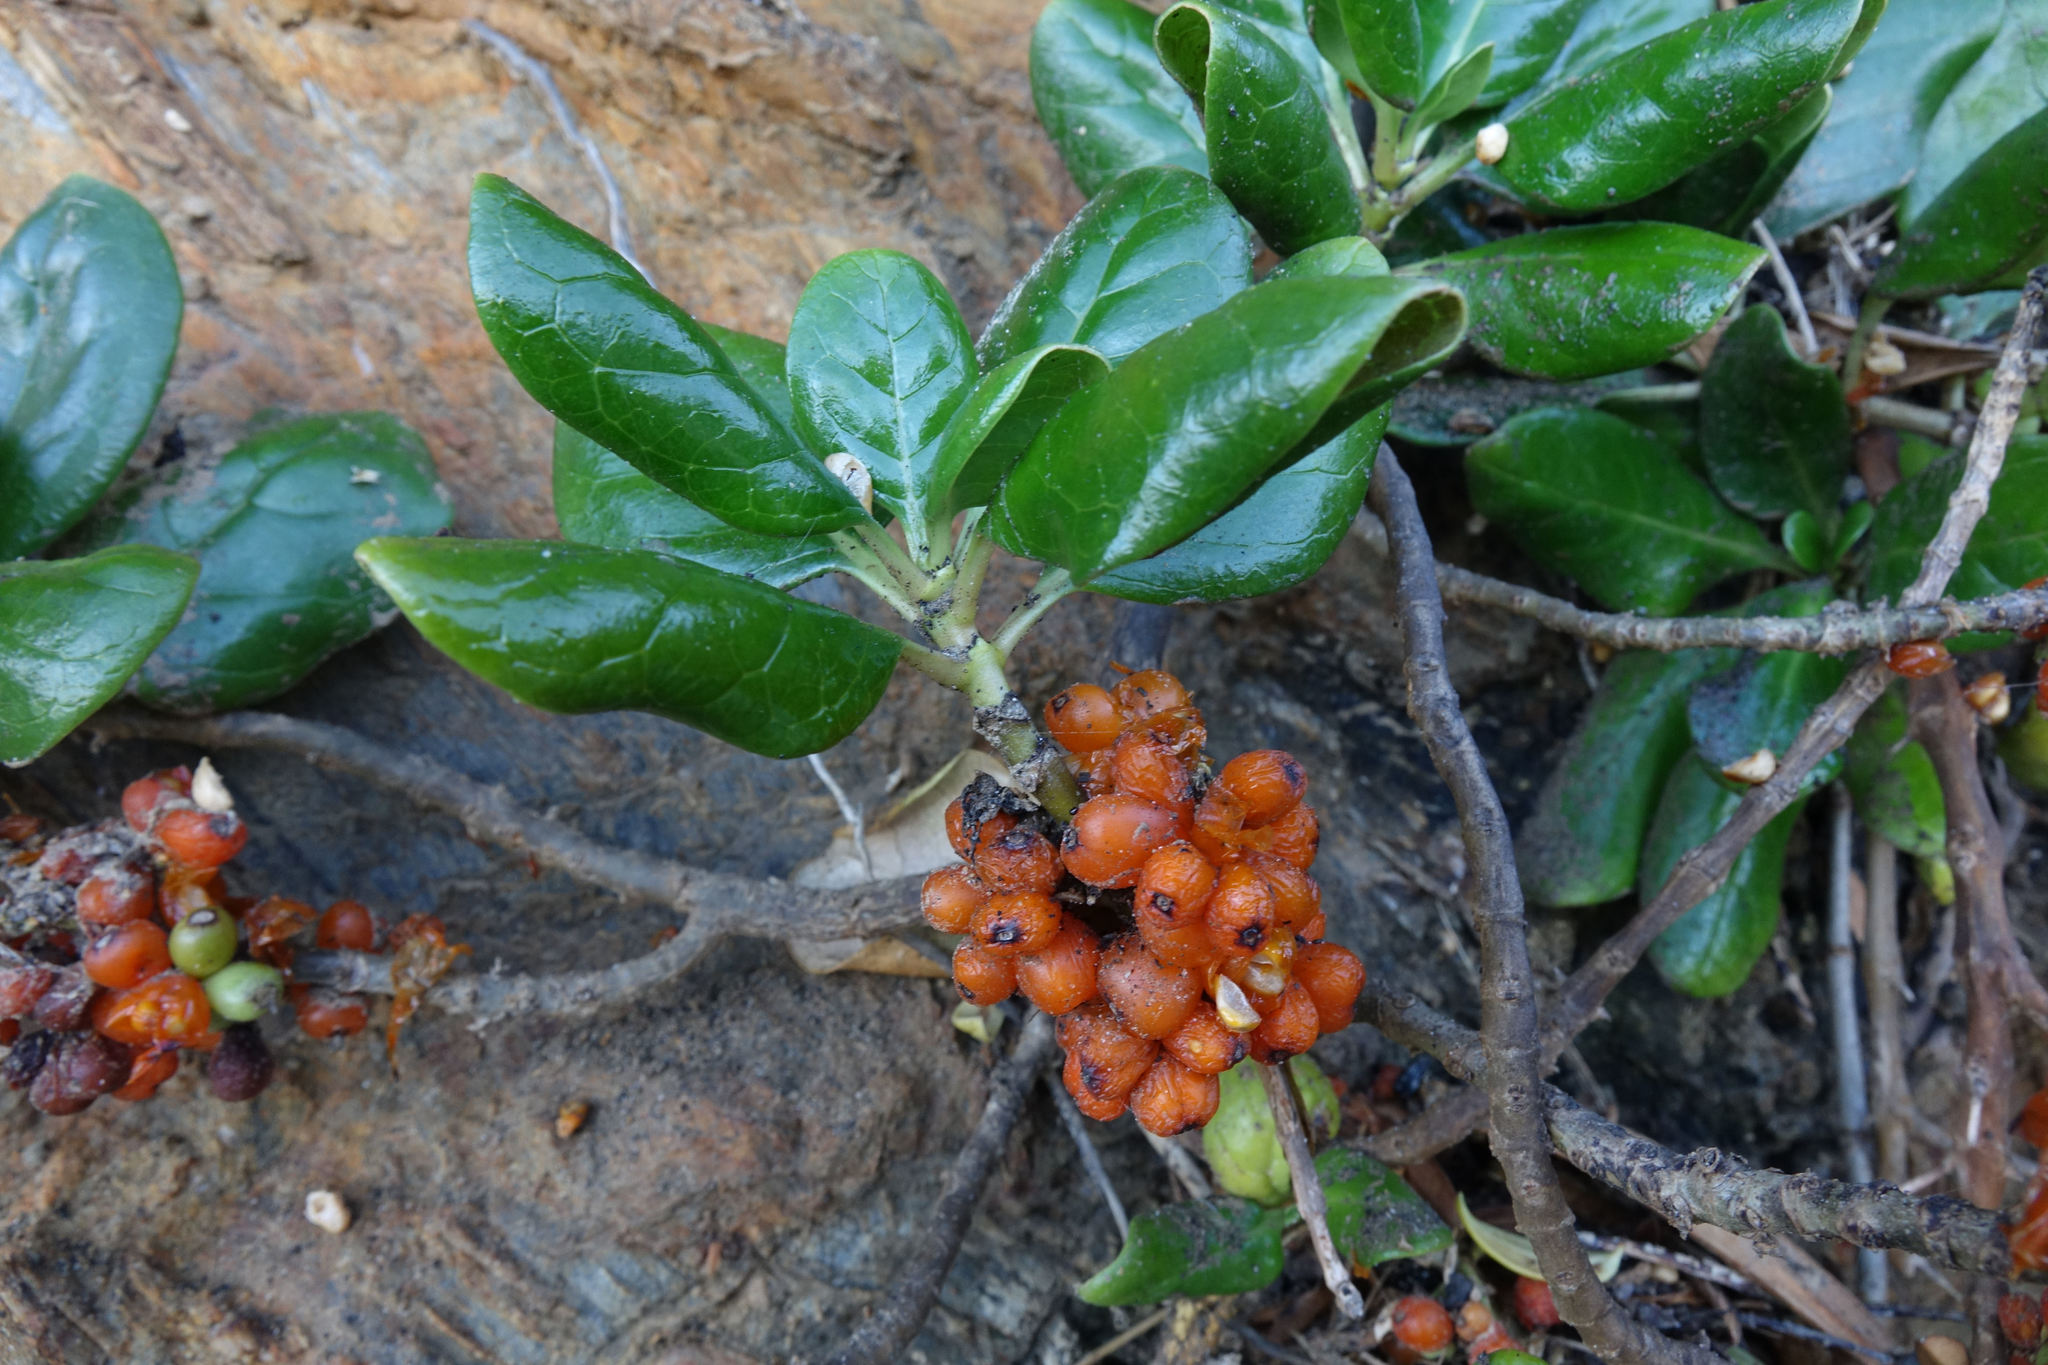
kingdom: Plantae
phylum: Tracheophyta
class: Magnoliopsida
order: Gentianales
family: Rubiaceae
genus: Coprosma
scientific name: Coprosma repens
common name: Tree bedstraw
